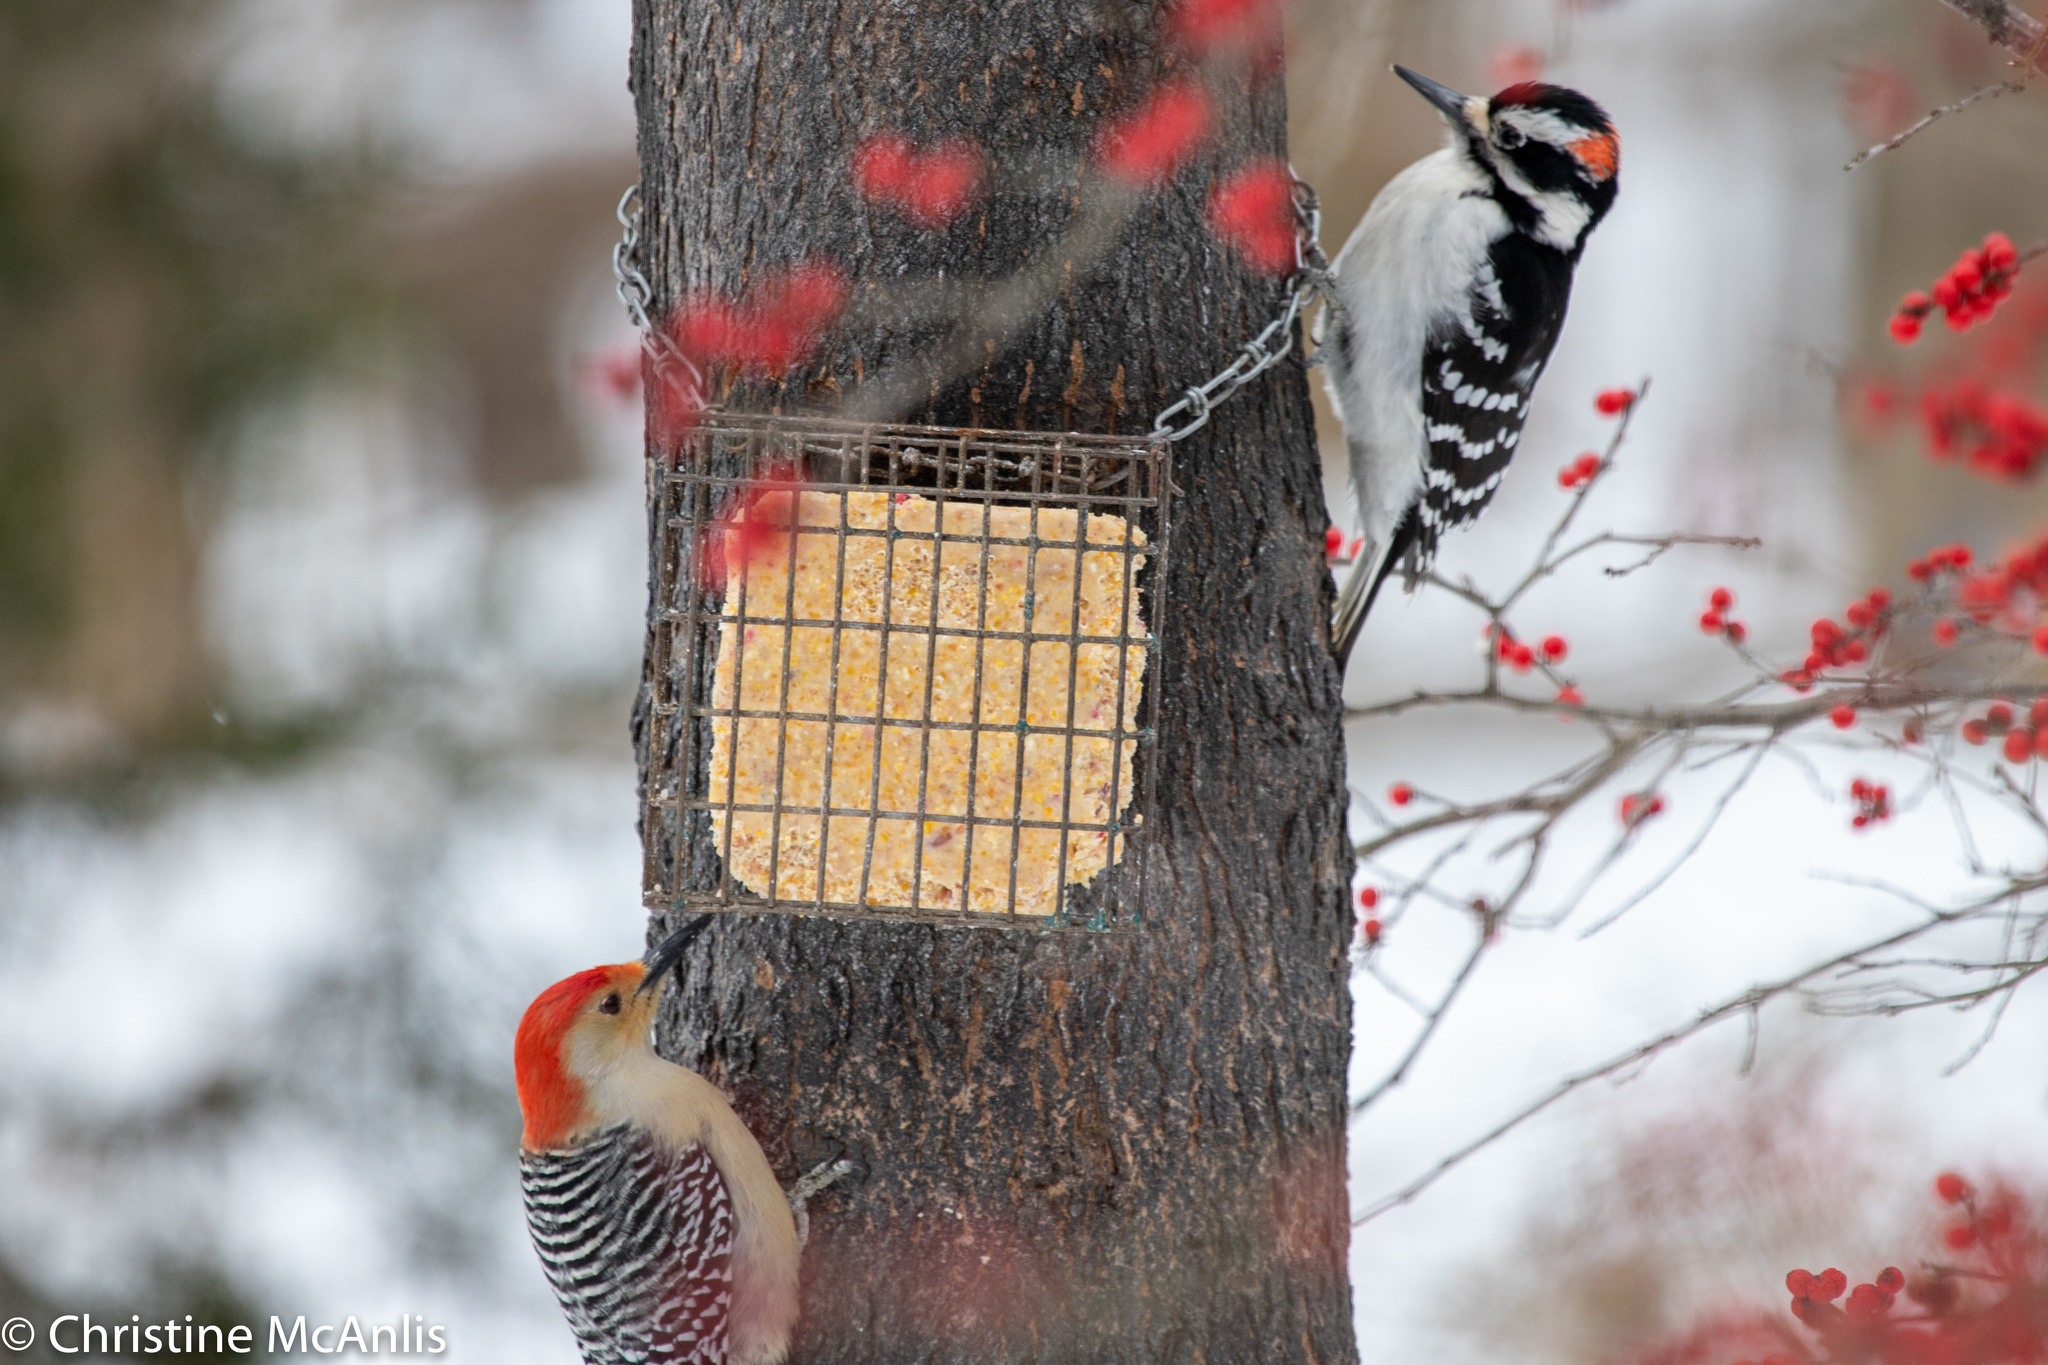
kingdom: Animalia
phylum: Chordata
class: Aves
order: Piciformes
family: Picidae
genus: Leuconotopicus
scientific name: Leuconotopicus villosus
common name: Hairy woodpecker
